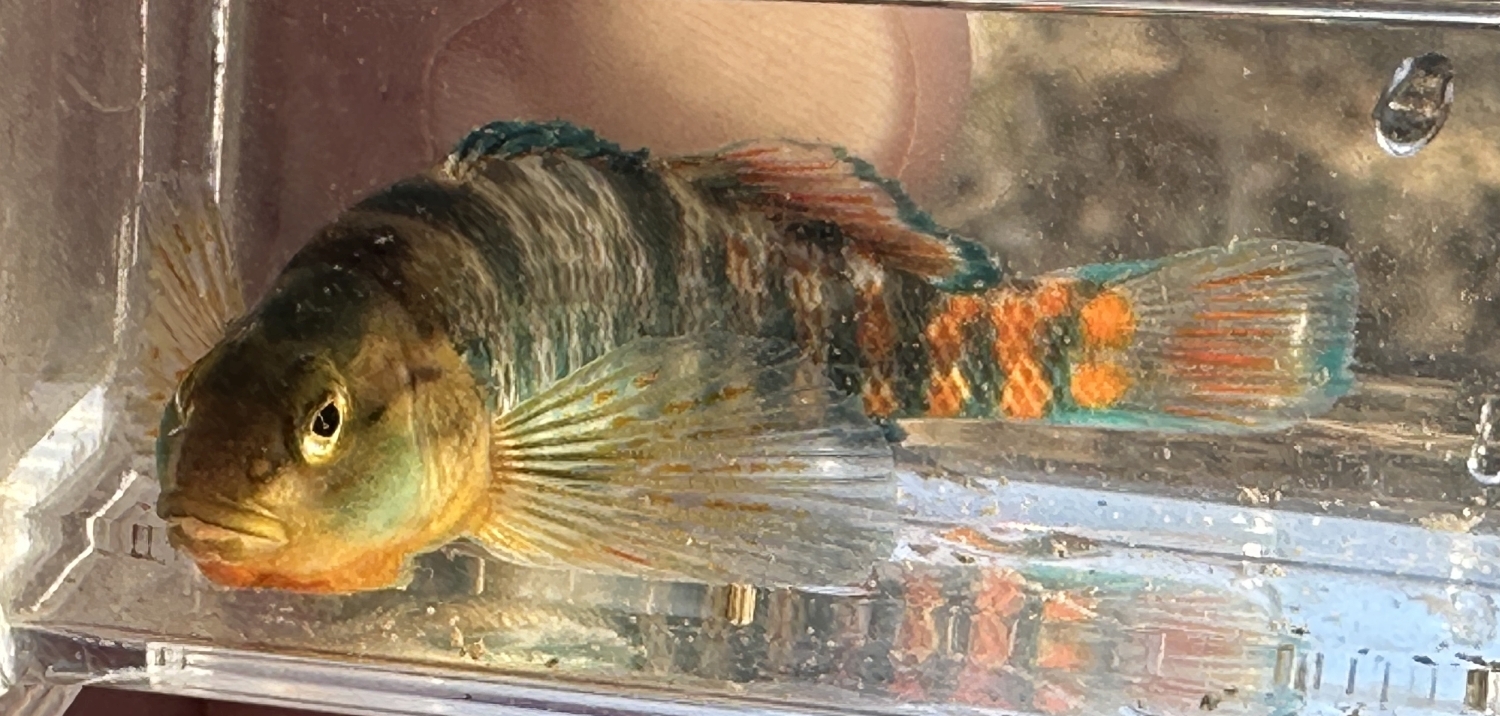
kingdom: Animalia
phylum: Chordata
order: Perciformes
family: Percidae
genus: Etheostoma
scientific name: Etheostoma caeruleum
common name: Rainbow darter
